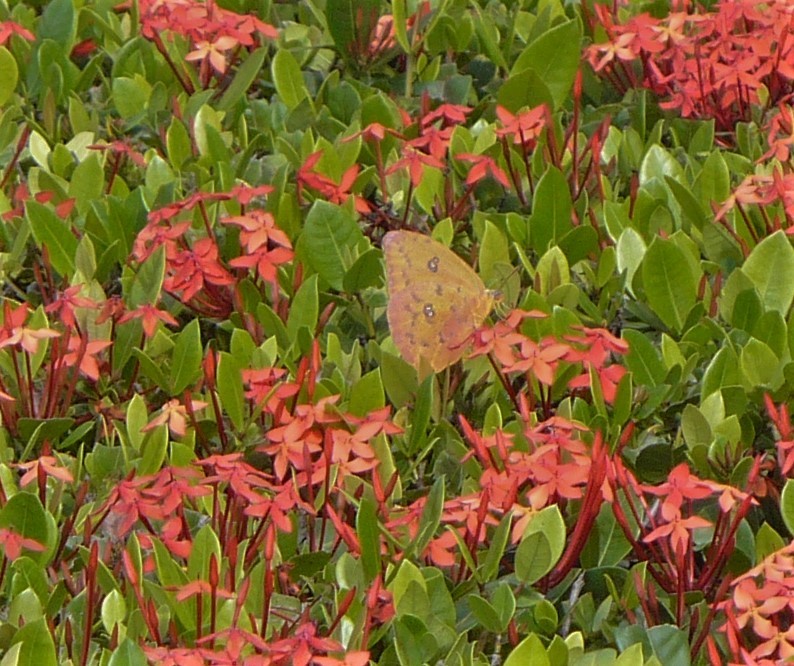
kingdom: Animalia
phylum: Arthropoda
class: Insecta
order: Lepidoptera
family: Pieridae
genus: Phoebis
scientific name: Phoebis philea
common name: Orange-barred giant sulphur
